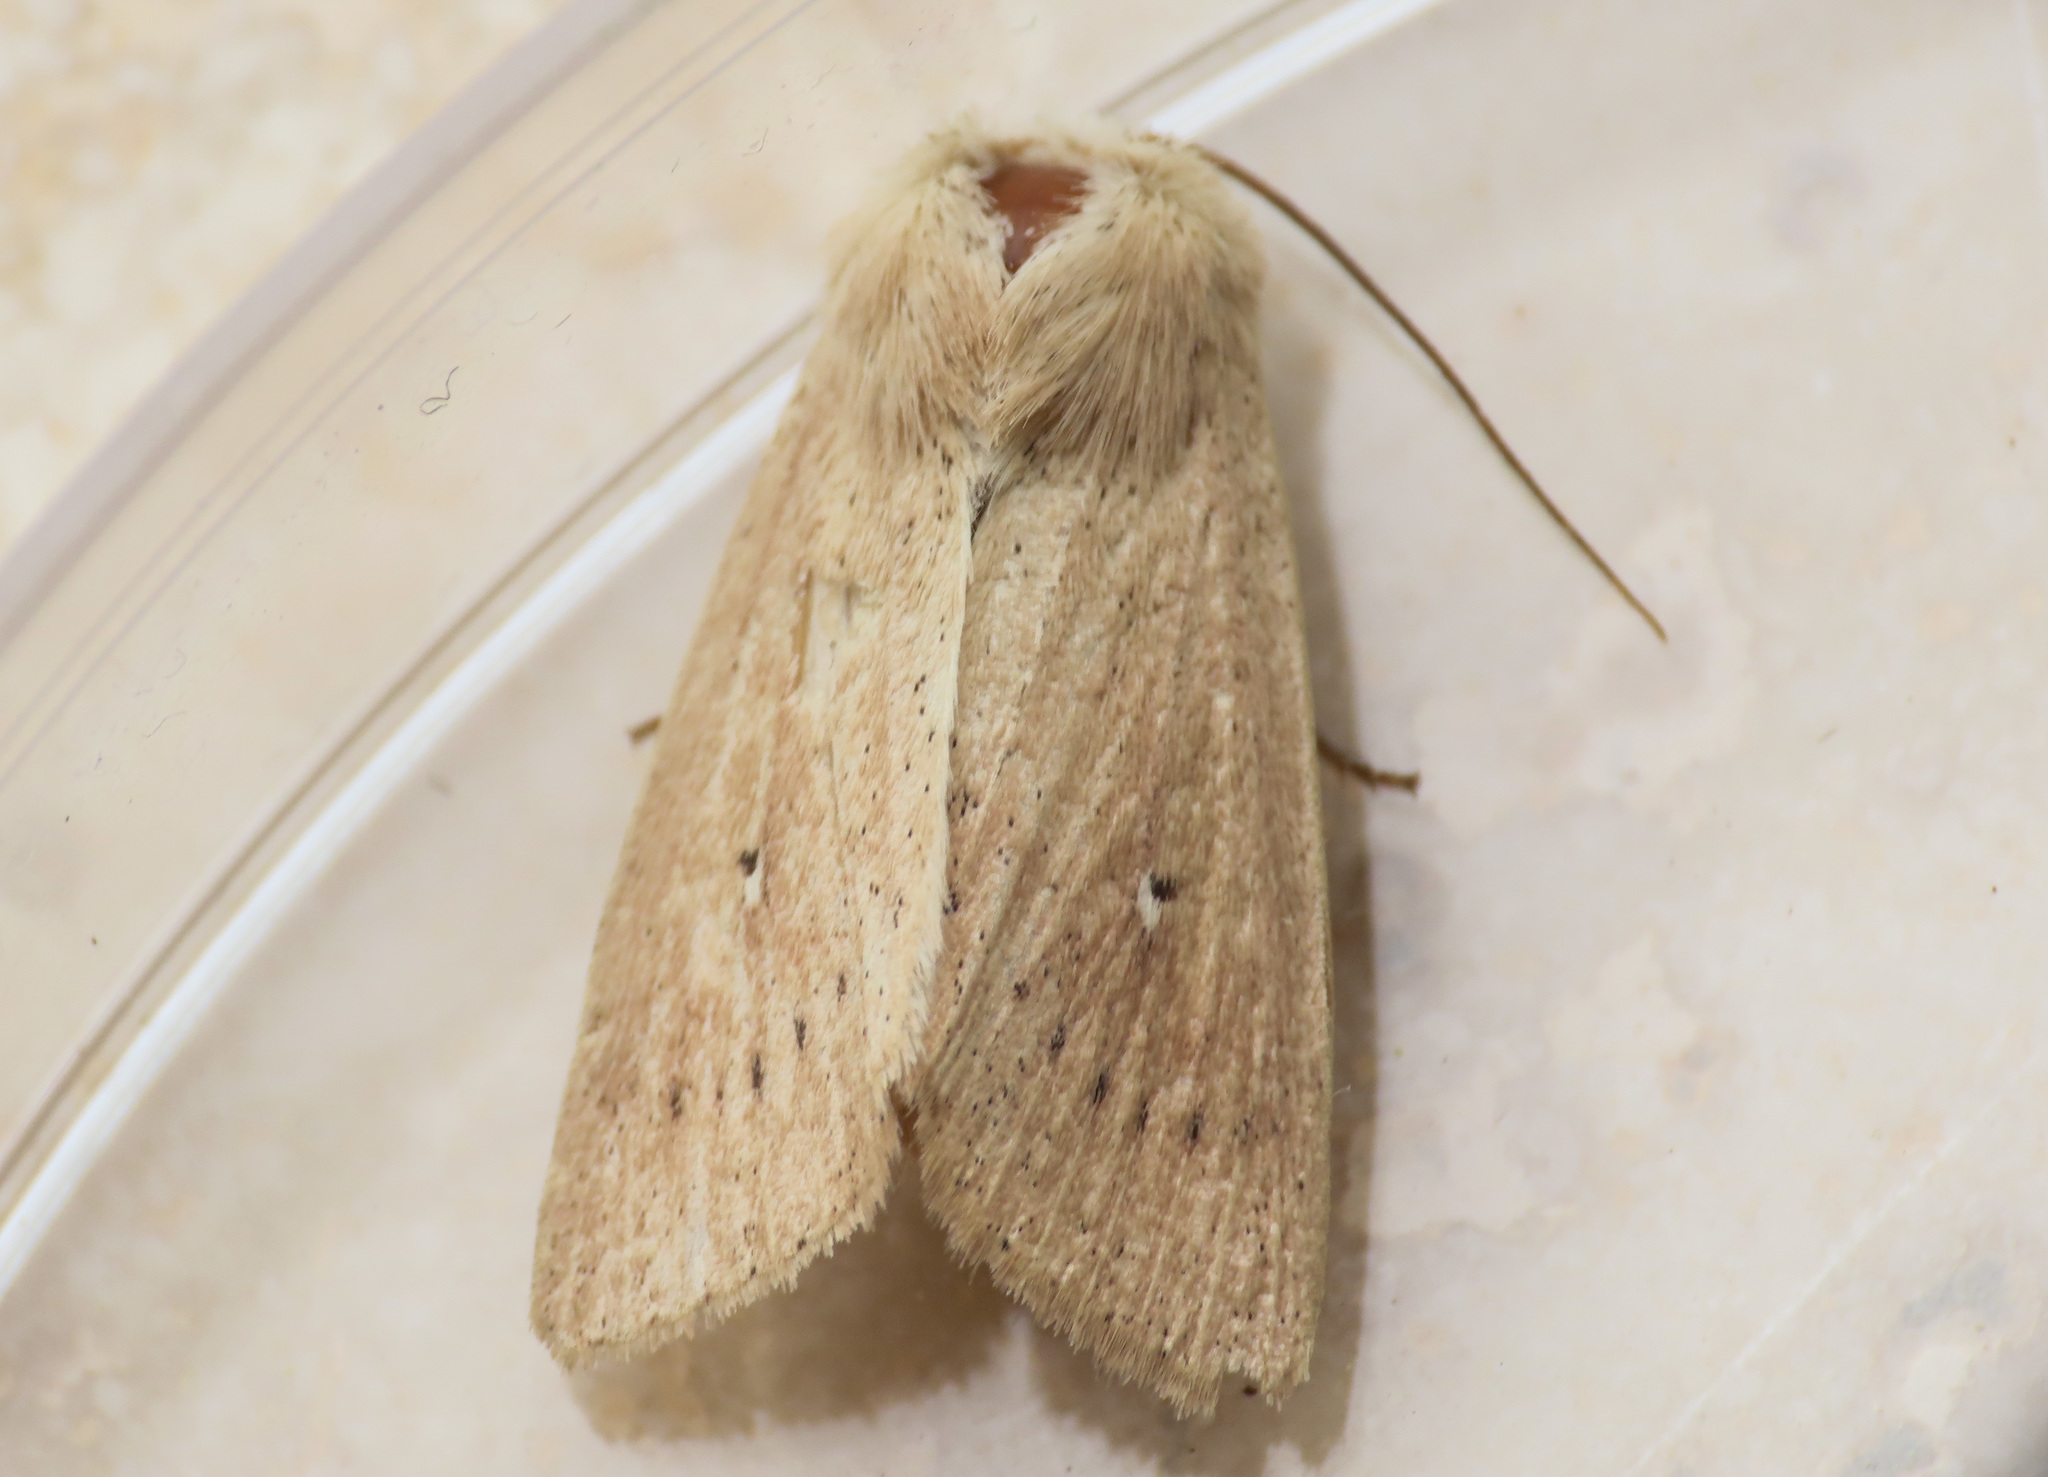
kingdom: Animalia
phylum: Arthropoda
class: Insecta
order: Lepidoptera
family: Noctuidae
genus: Mythimna
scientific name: Mythimna sicula
